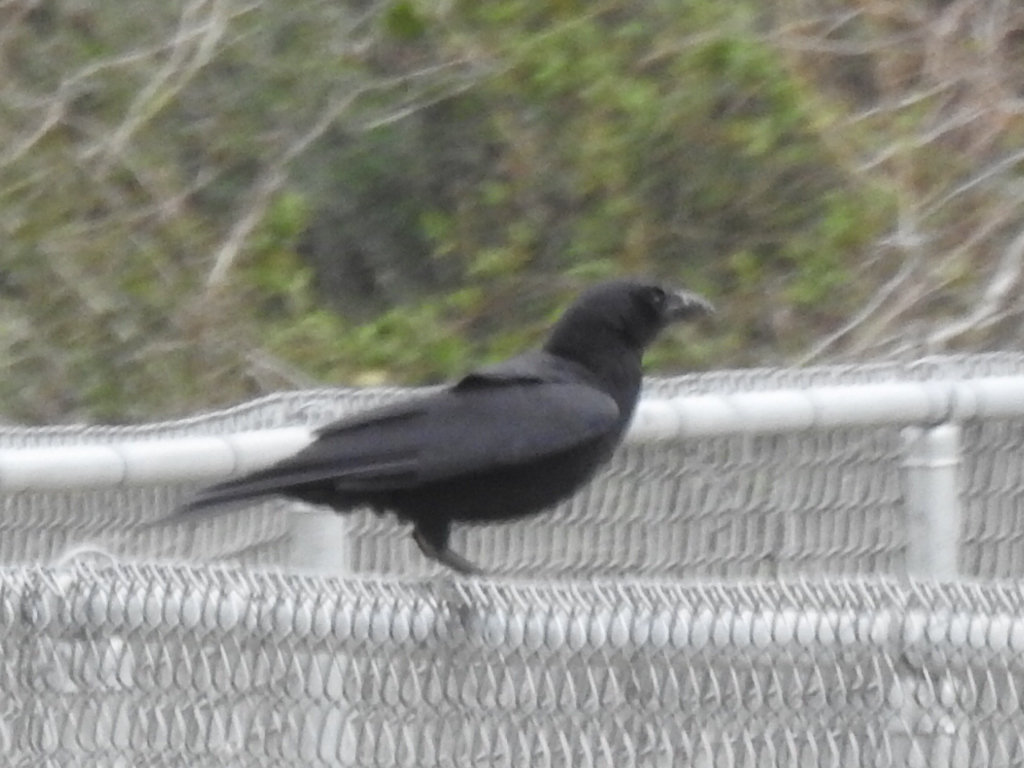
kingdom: Animalia
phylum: Chordata
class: Aves
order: Passeriformes
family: Corvidae
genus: Corvus
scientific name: Corvus brachyrhynchos
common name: American crow
